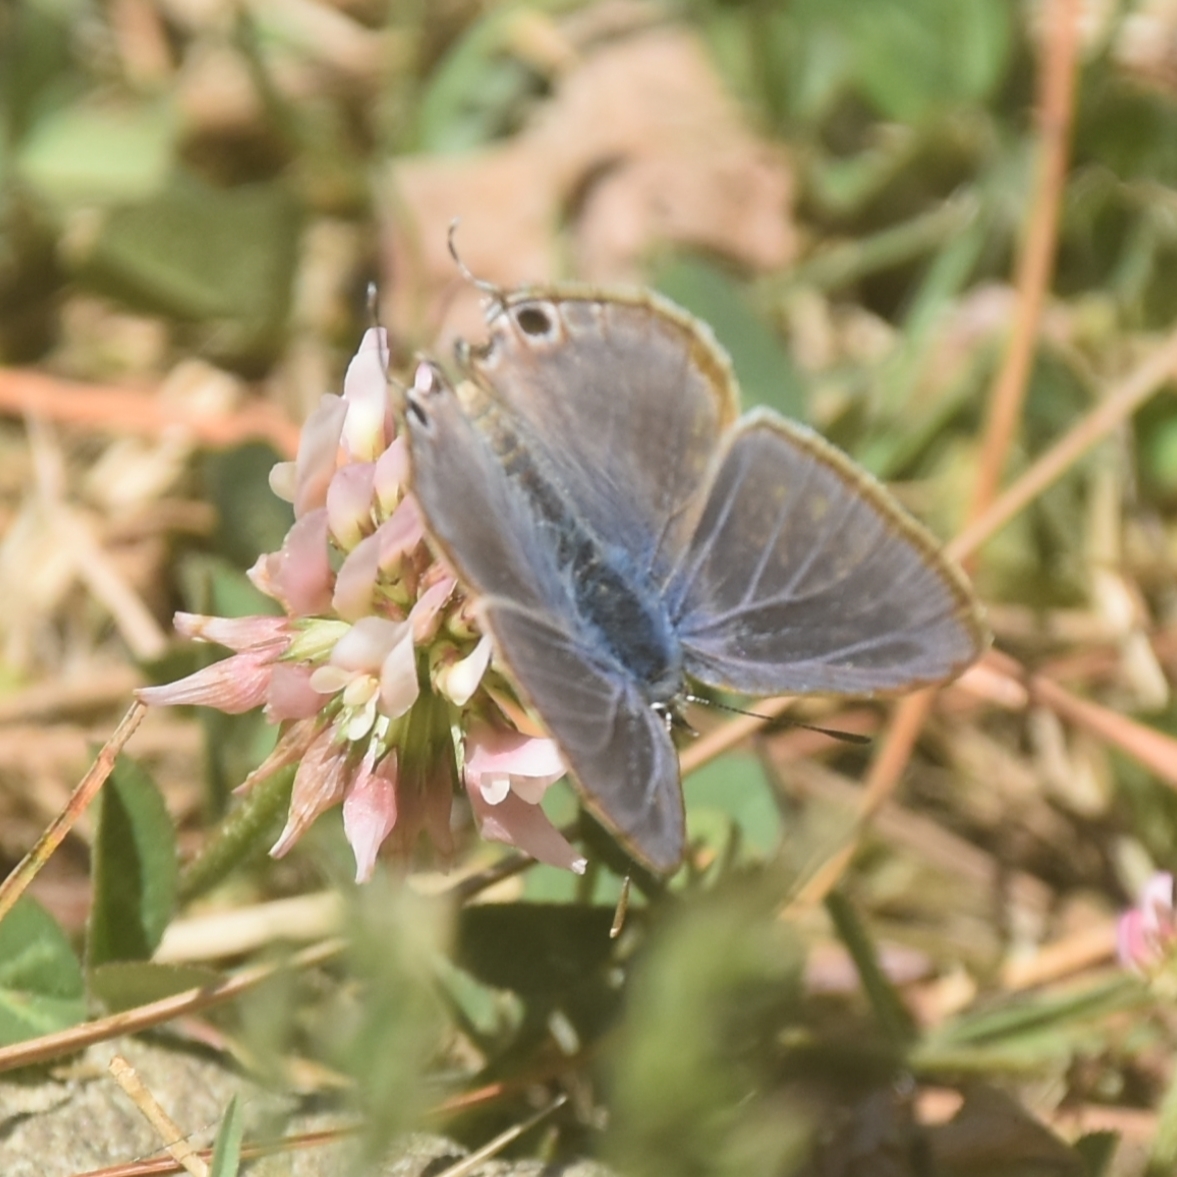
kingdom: Animalia
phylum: Arthropoda
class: Insecta
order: Lepidoptera
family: Lycaenidae
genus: Lampides
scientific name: Lampides boeticus
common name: Long-tailed blue
